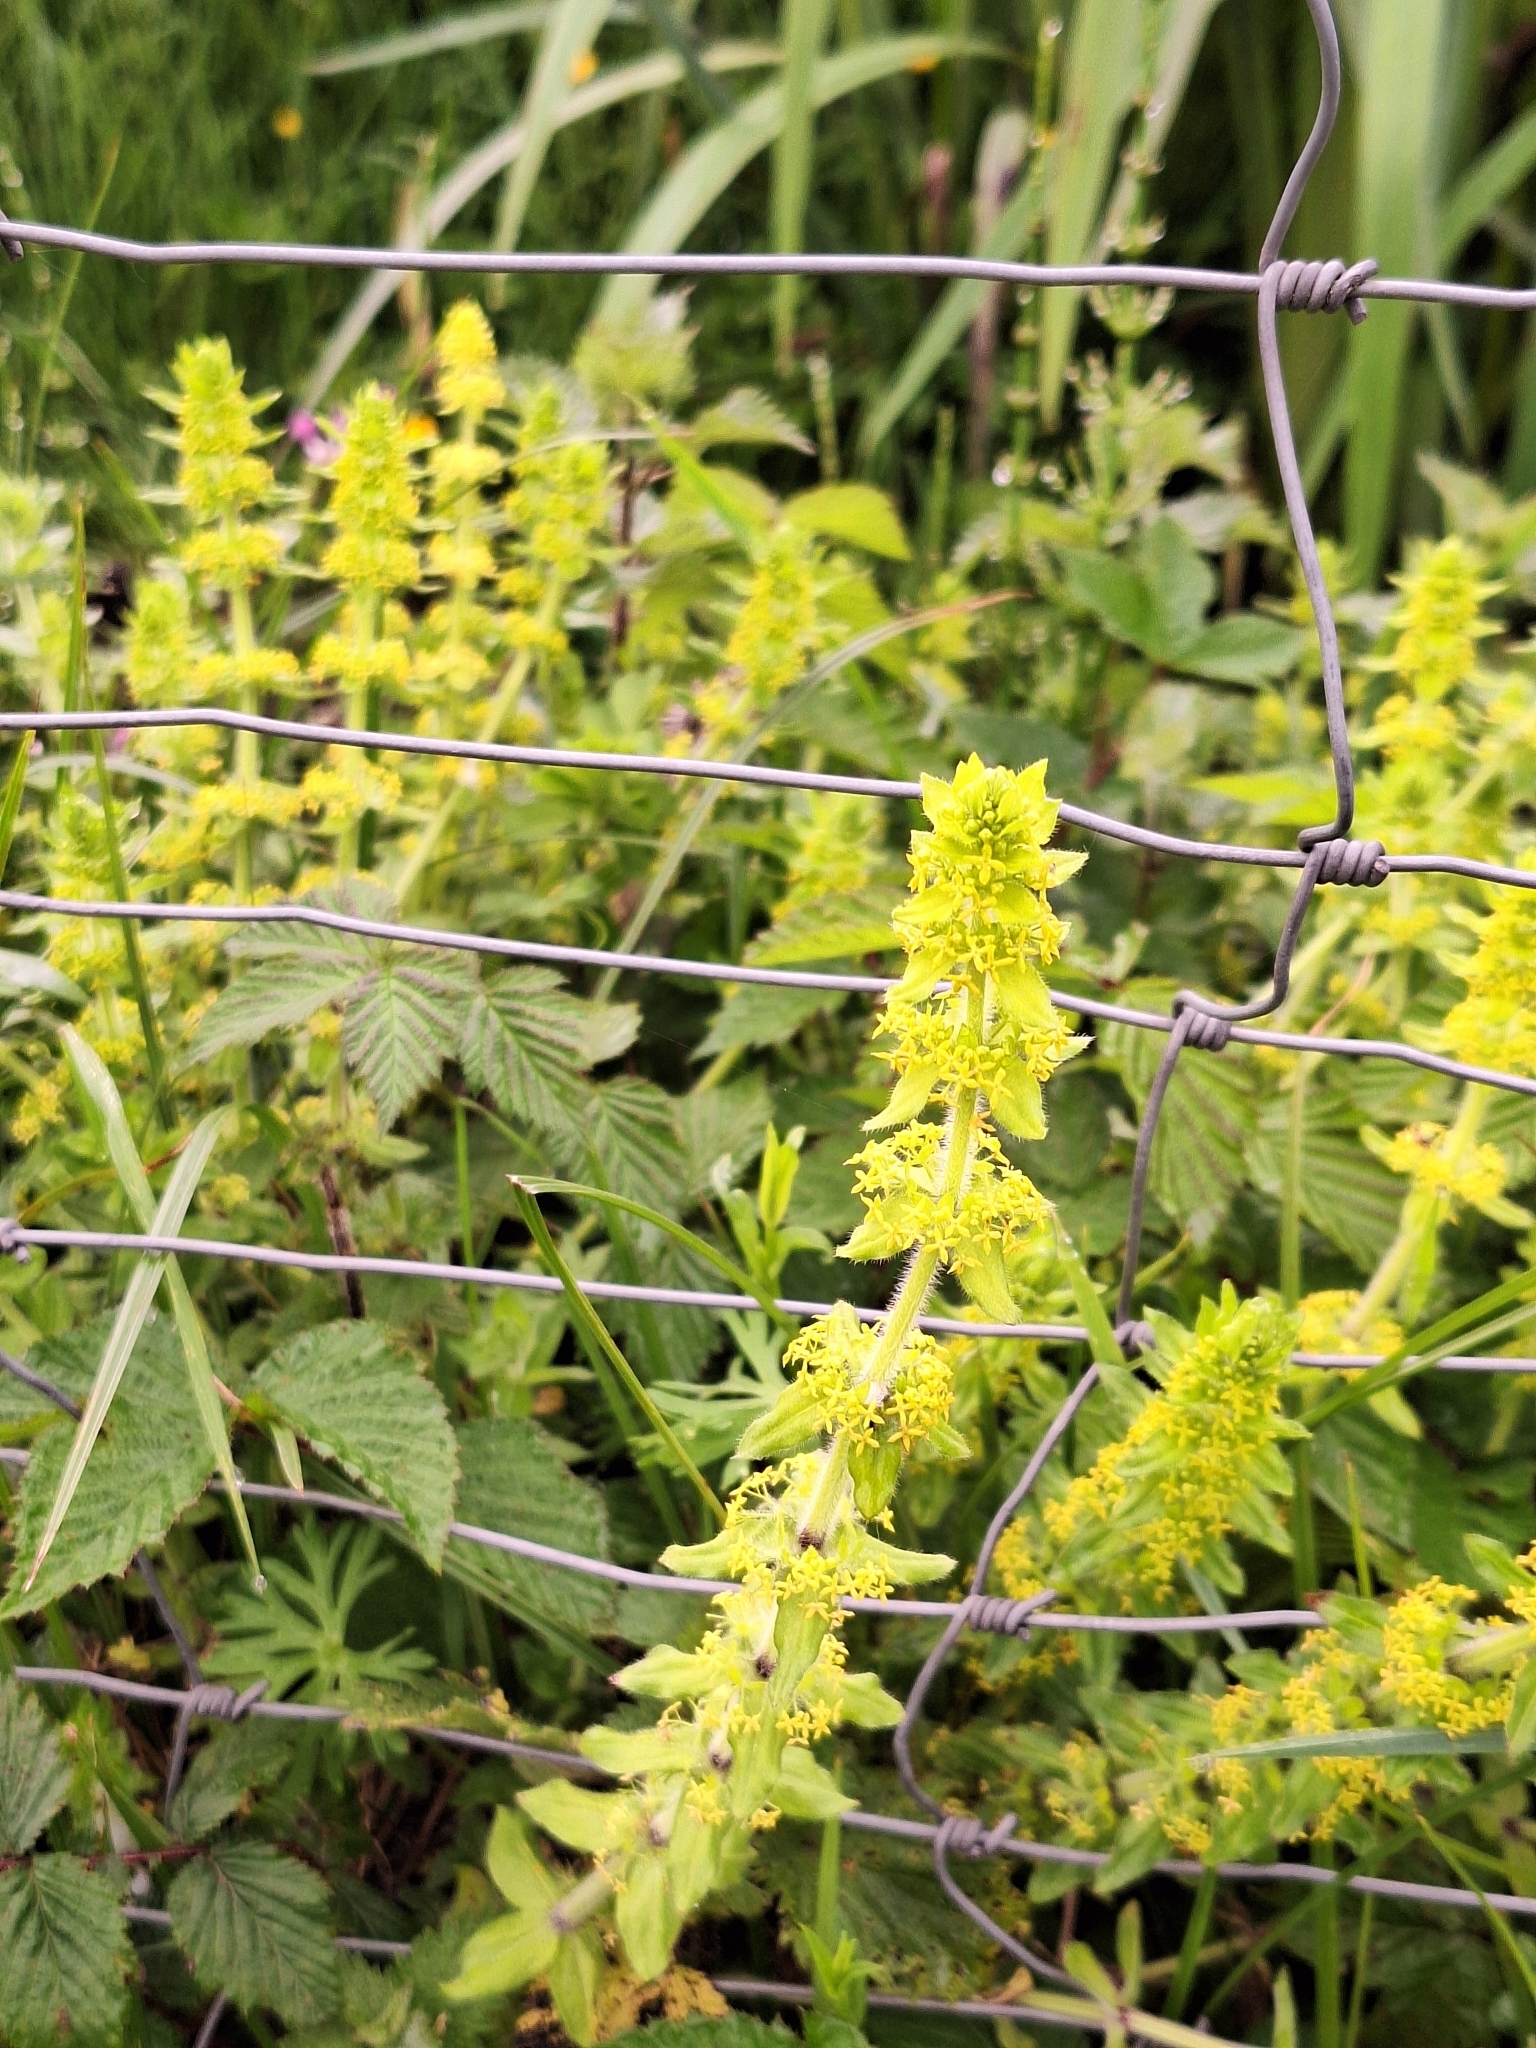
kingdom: Plantae
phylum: Tracheophyta
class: Magnoliopsida
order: Gentianales
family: Rubiaceae
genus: Cruciata
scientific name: Cruciata laevipes
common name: Crosswort
